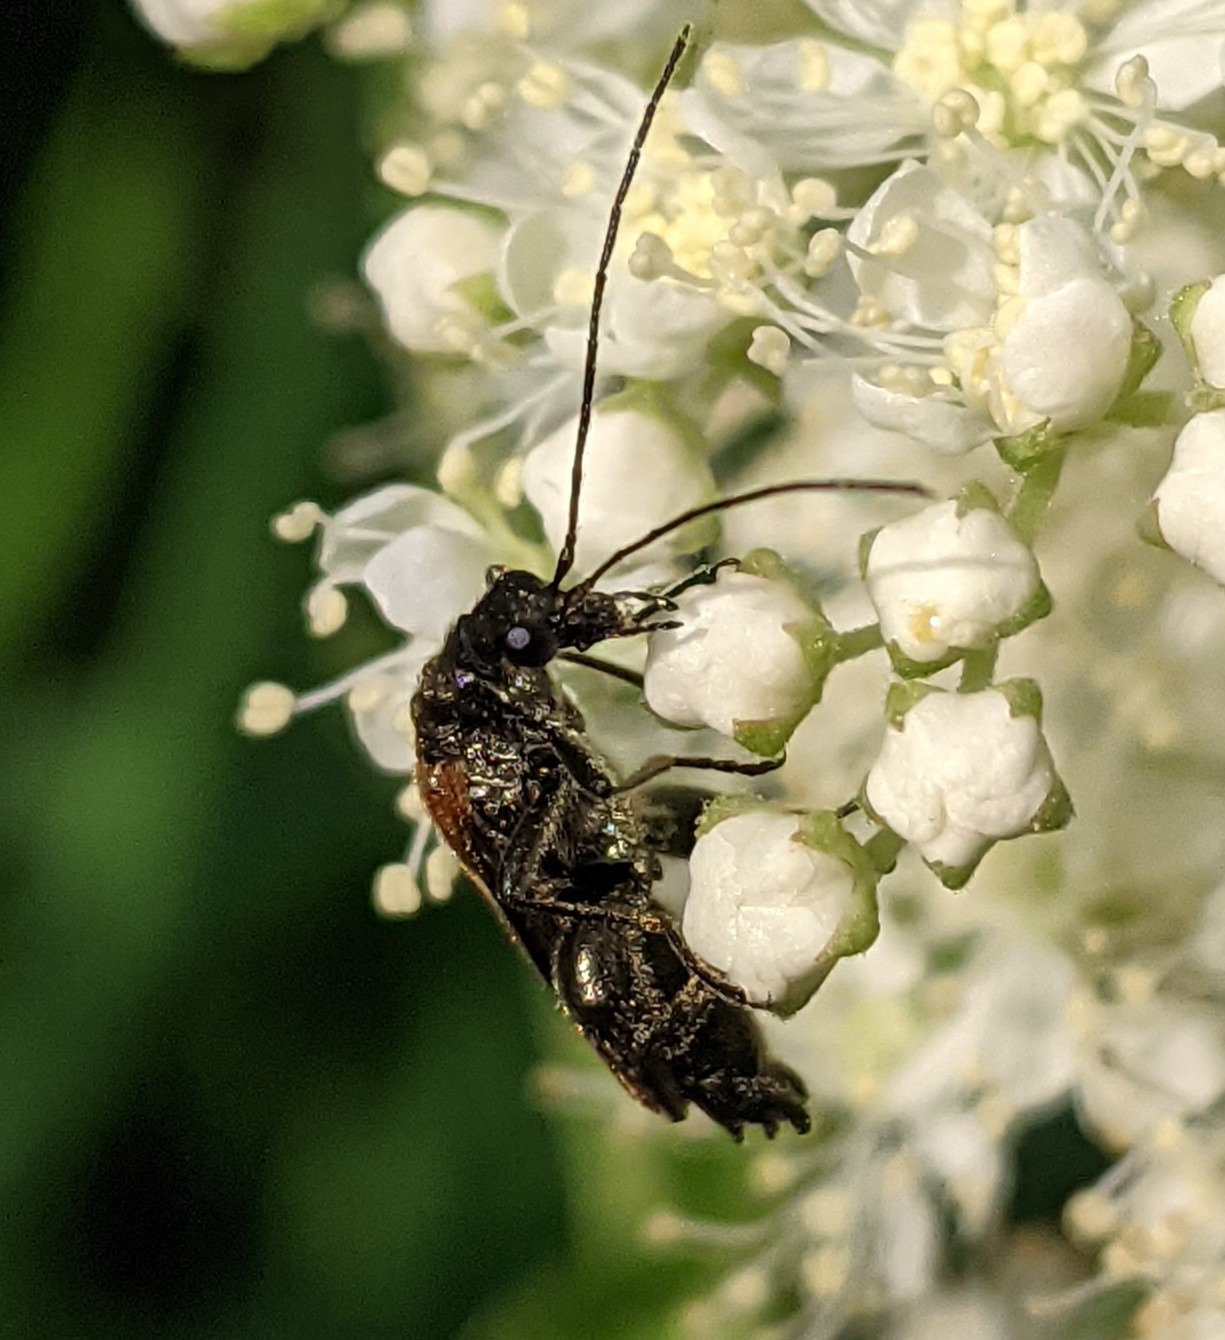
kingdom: Animalia
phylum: Arthropoda
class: Insecta
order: Coleoptera
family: Oedemeridae
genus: Oedemera
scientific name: Oedemera femorata
